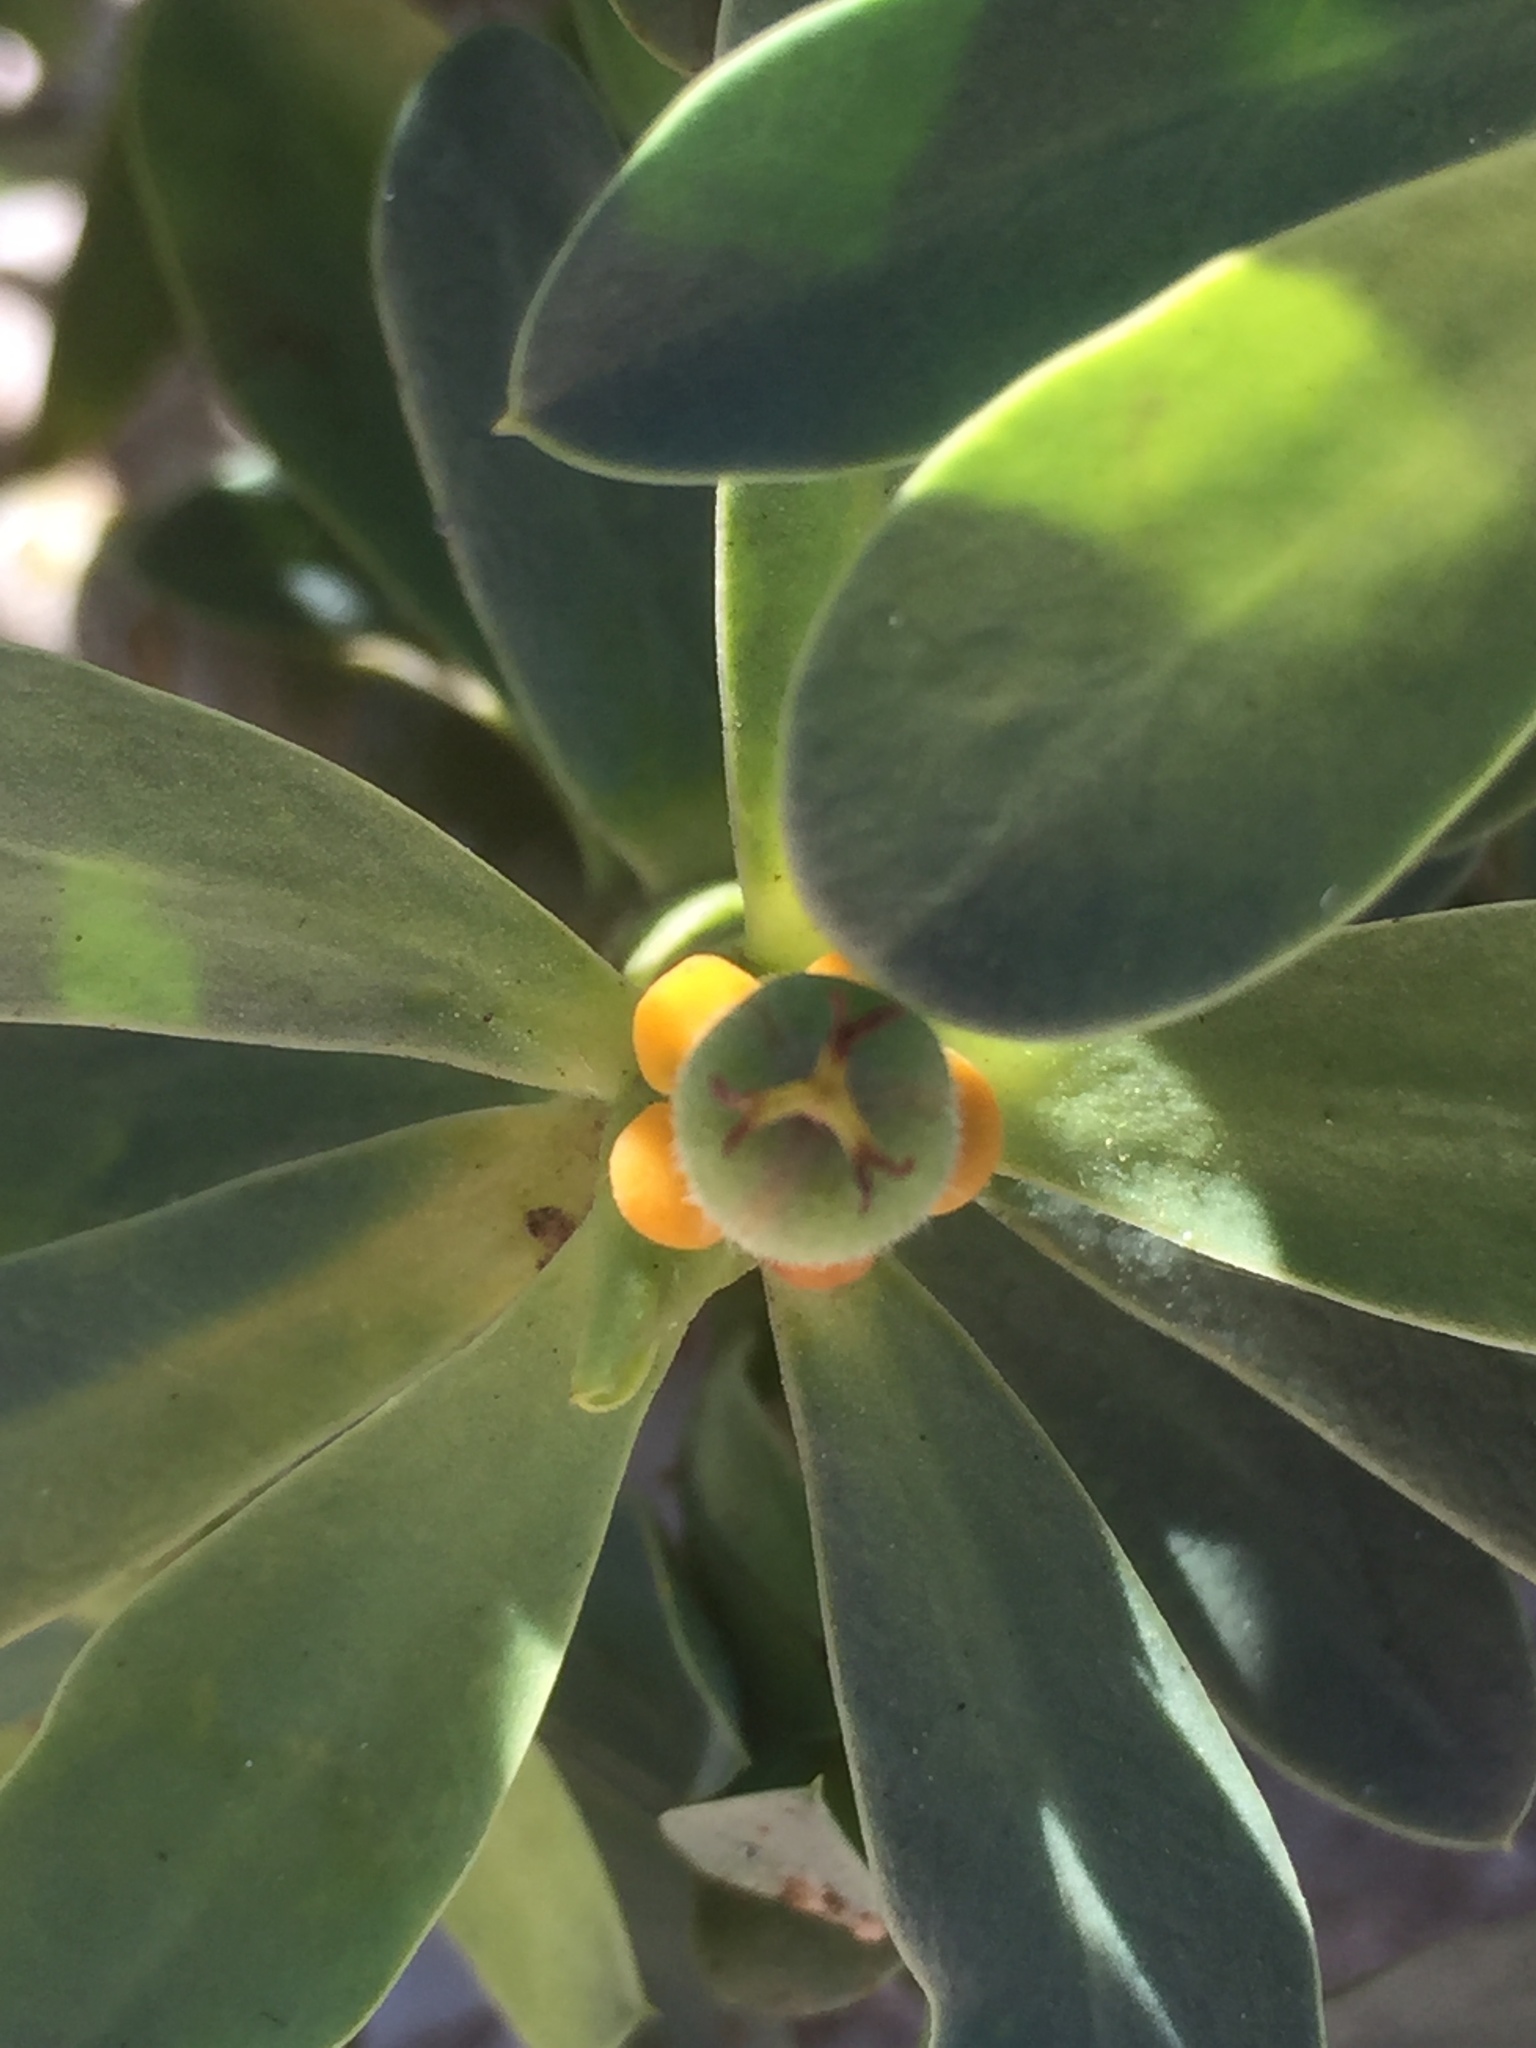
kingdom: Plantae
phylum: Tracheophyta
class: Magnoliopsida
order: Malpighiales
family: Euphorbiaceae
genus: Euphorbia
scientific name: Euphorbia balsamifera
